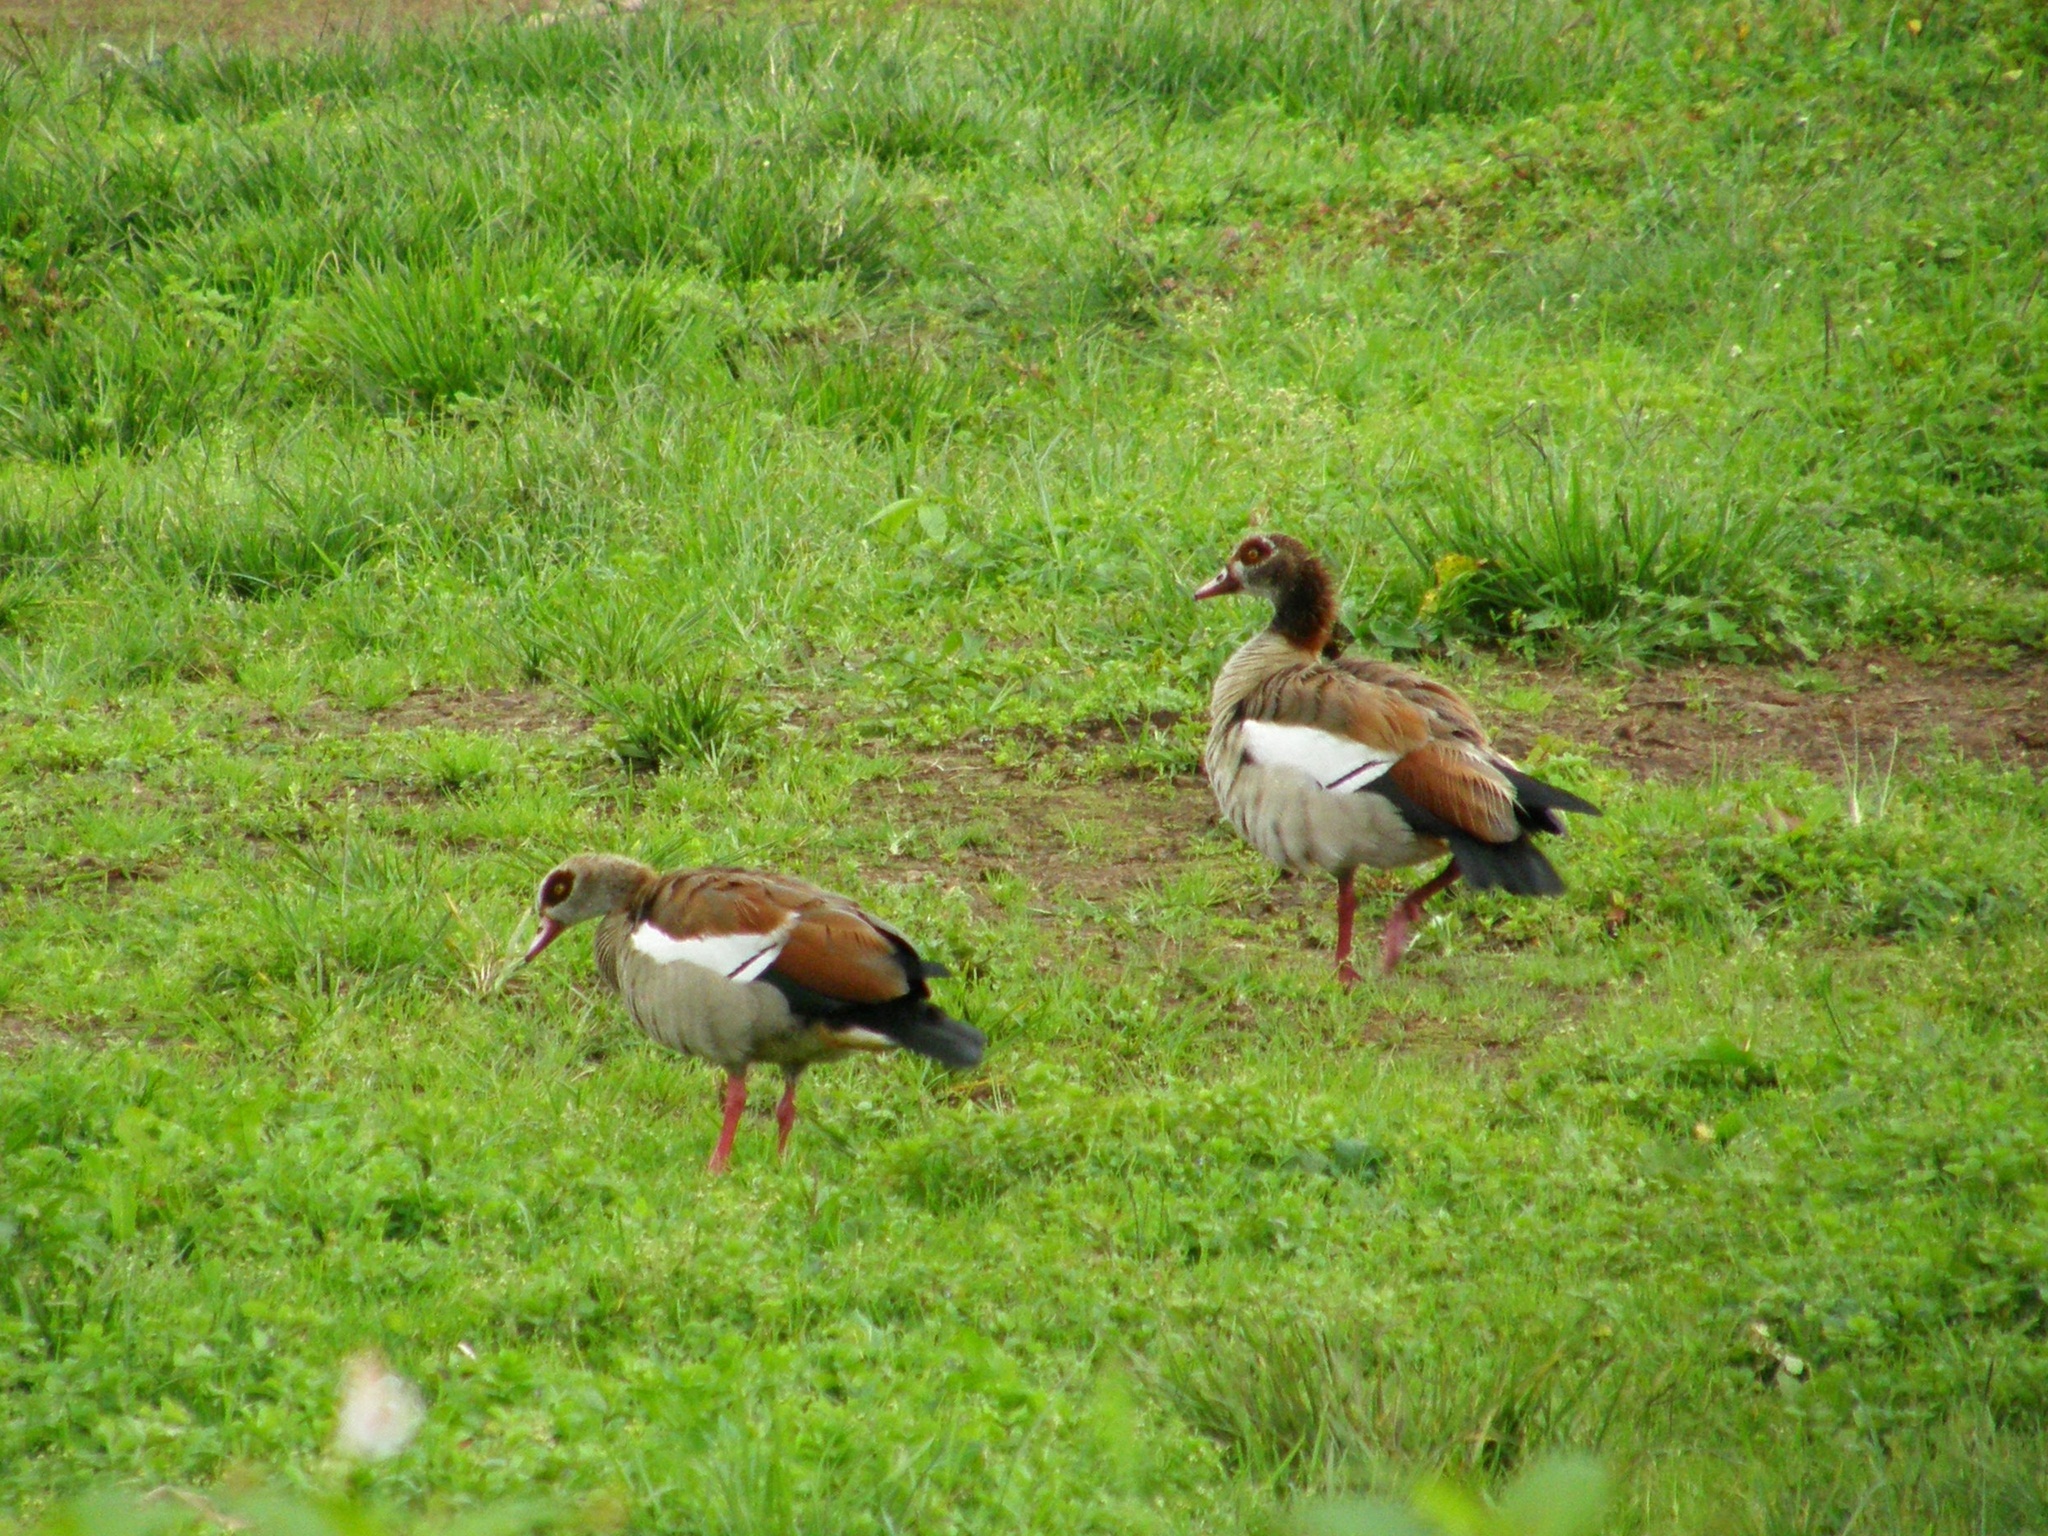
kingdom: Animalia
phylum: Chordata
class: Aves
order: Anseriformes
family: Anatidae
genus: Alopochen
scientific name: Alopochen aegyptiaca
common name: Egyptian goose
